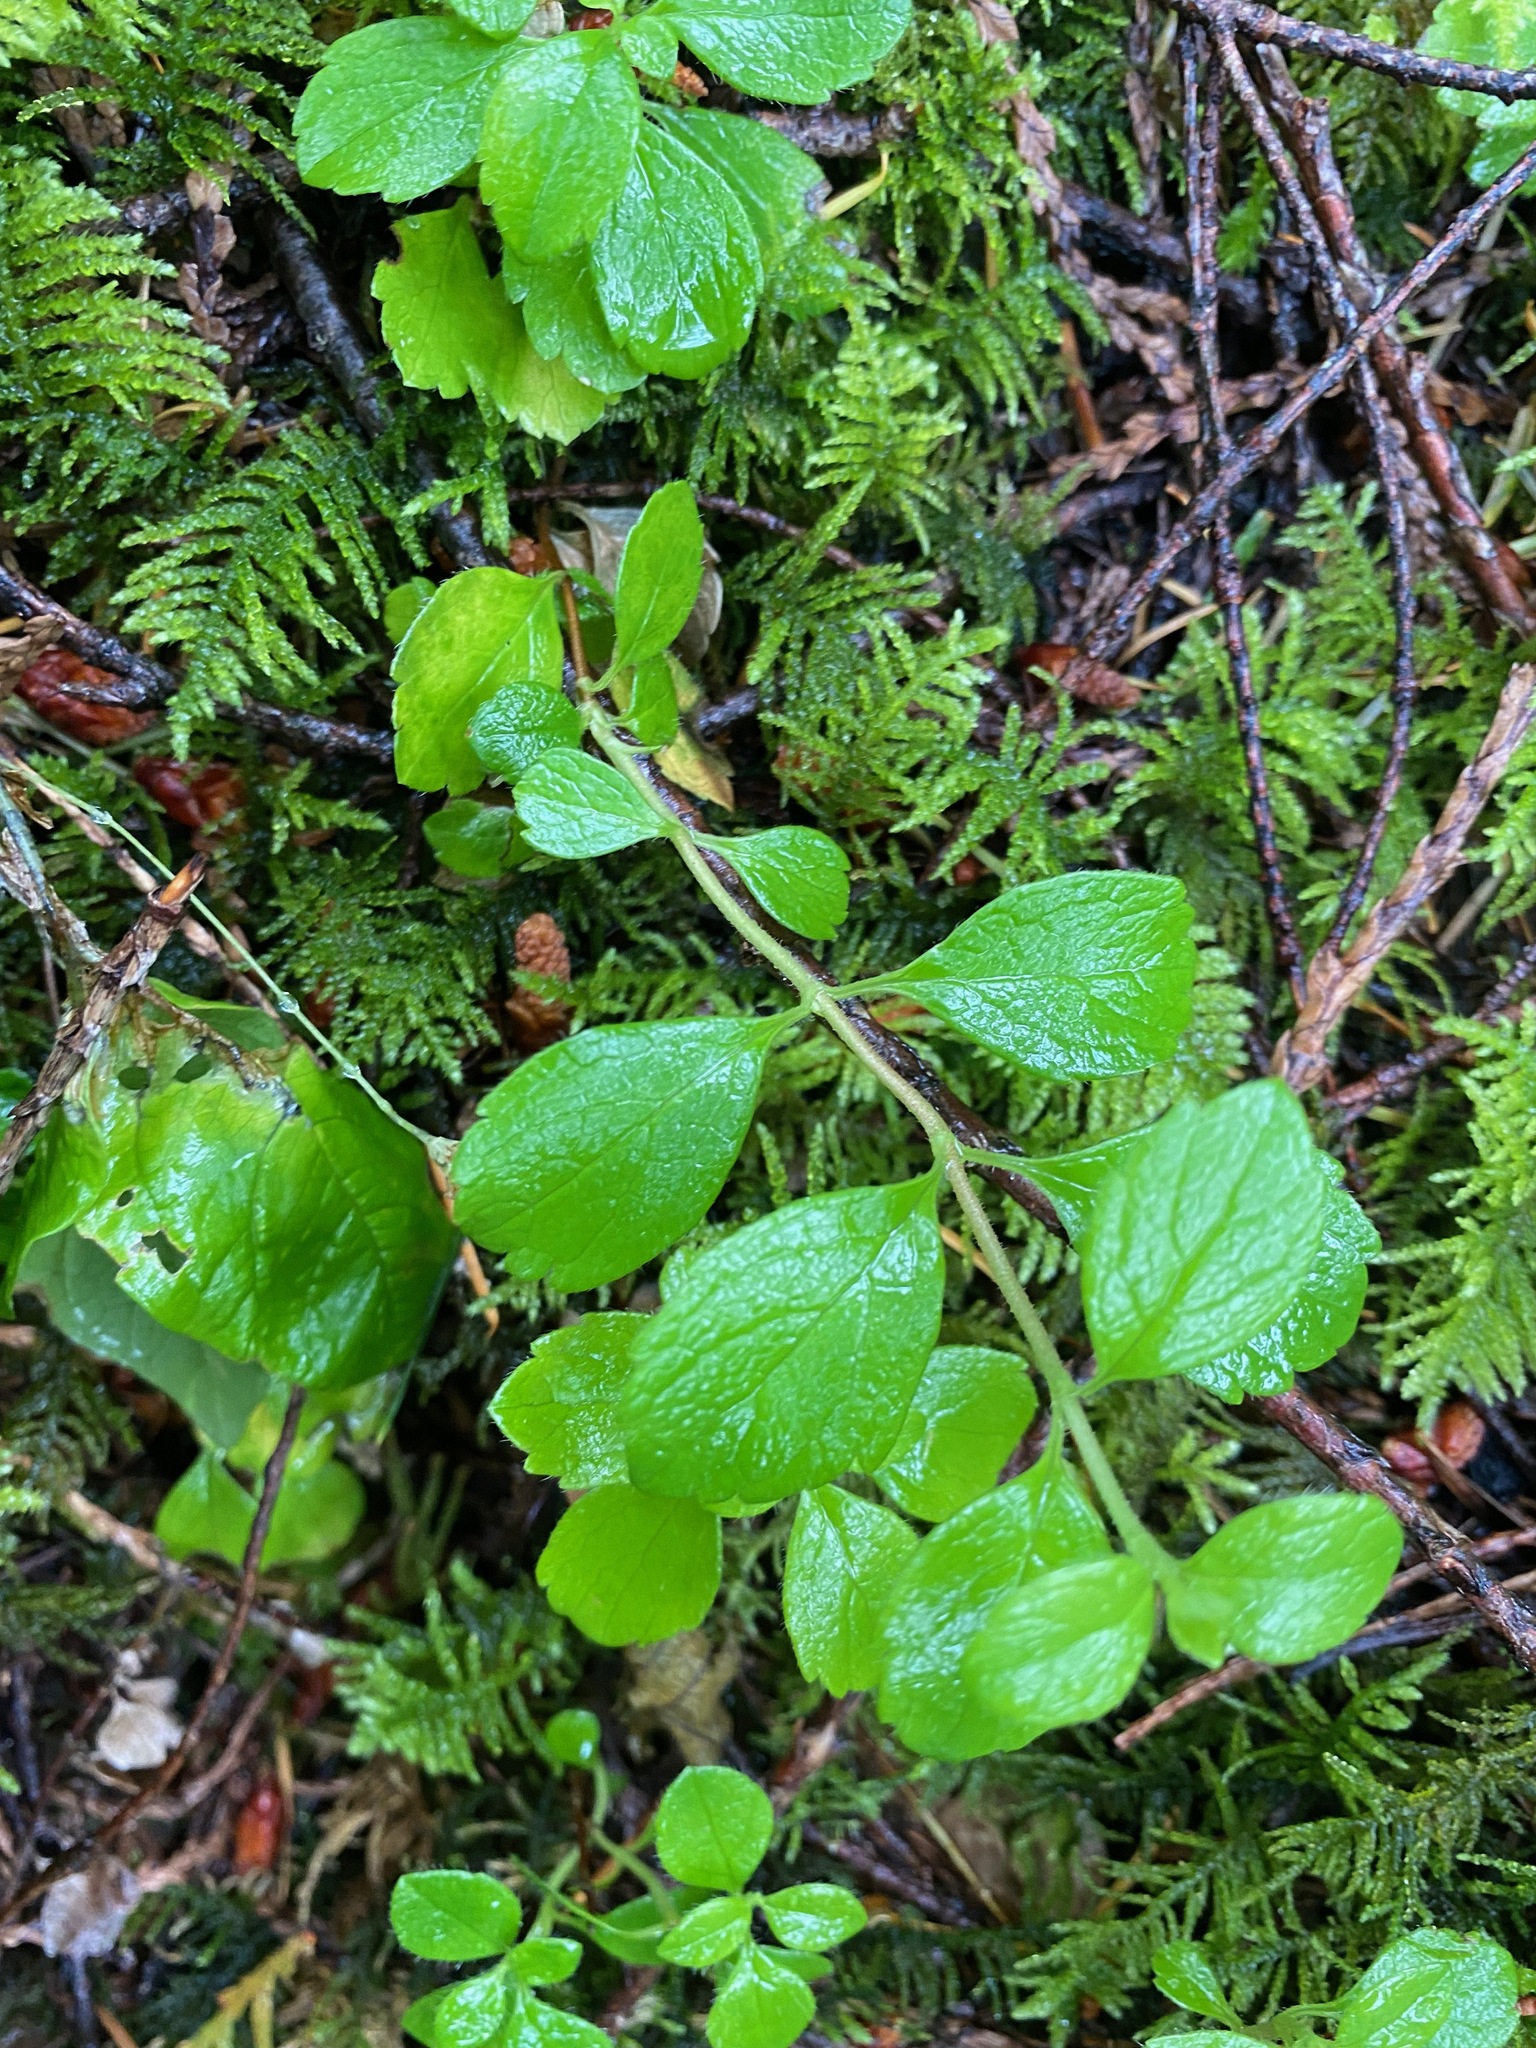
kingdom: Plantae
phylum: Tracheophyta
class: Magnoliopsida
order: Dipsacales
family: Caprifoliaceae
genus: Linnaea
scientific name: Linnaea borealis
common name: Twinflower
